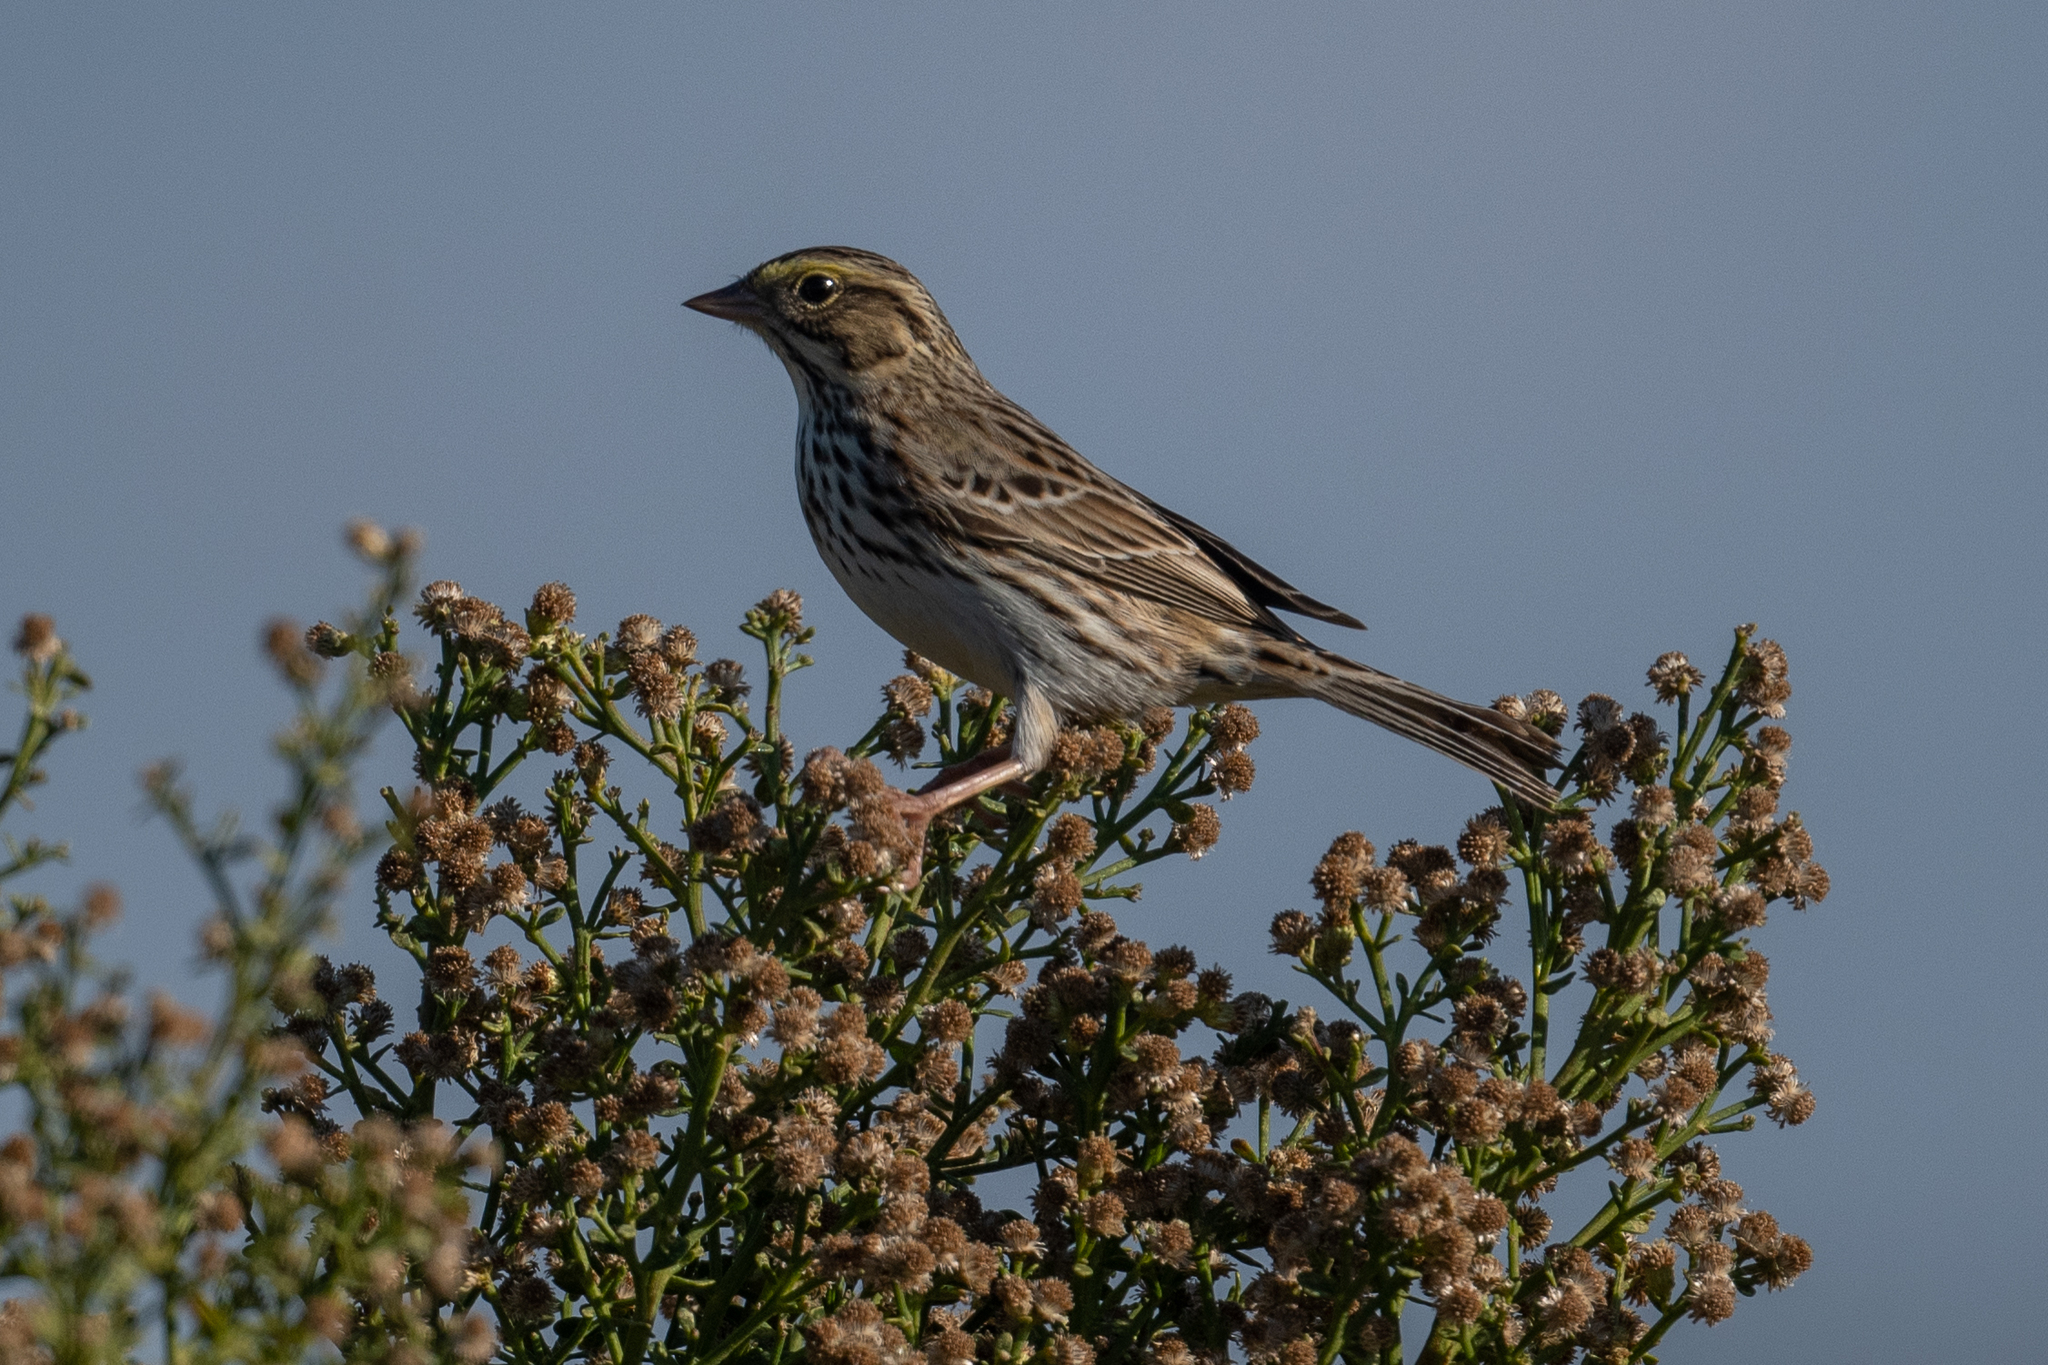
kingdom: Animalia
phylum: Chordata
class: Aves
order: Passeriformes
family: Passerellidae
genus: Passerculus
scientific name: Passerculus sandwichensis
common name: Savannah sparrow
